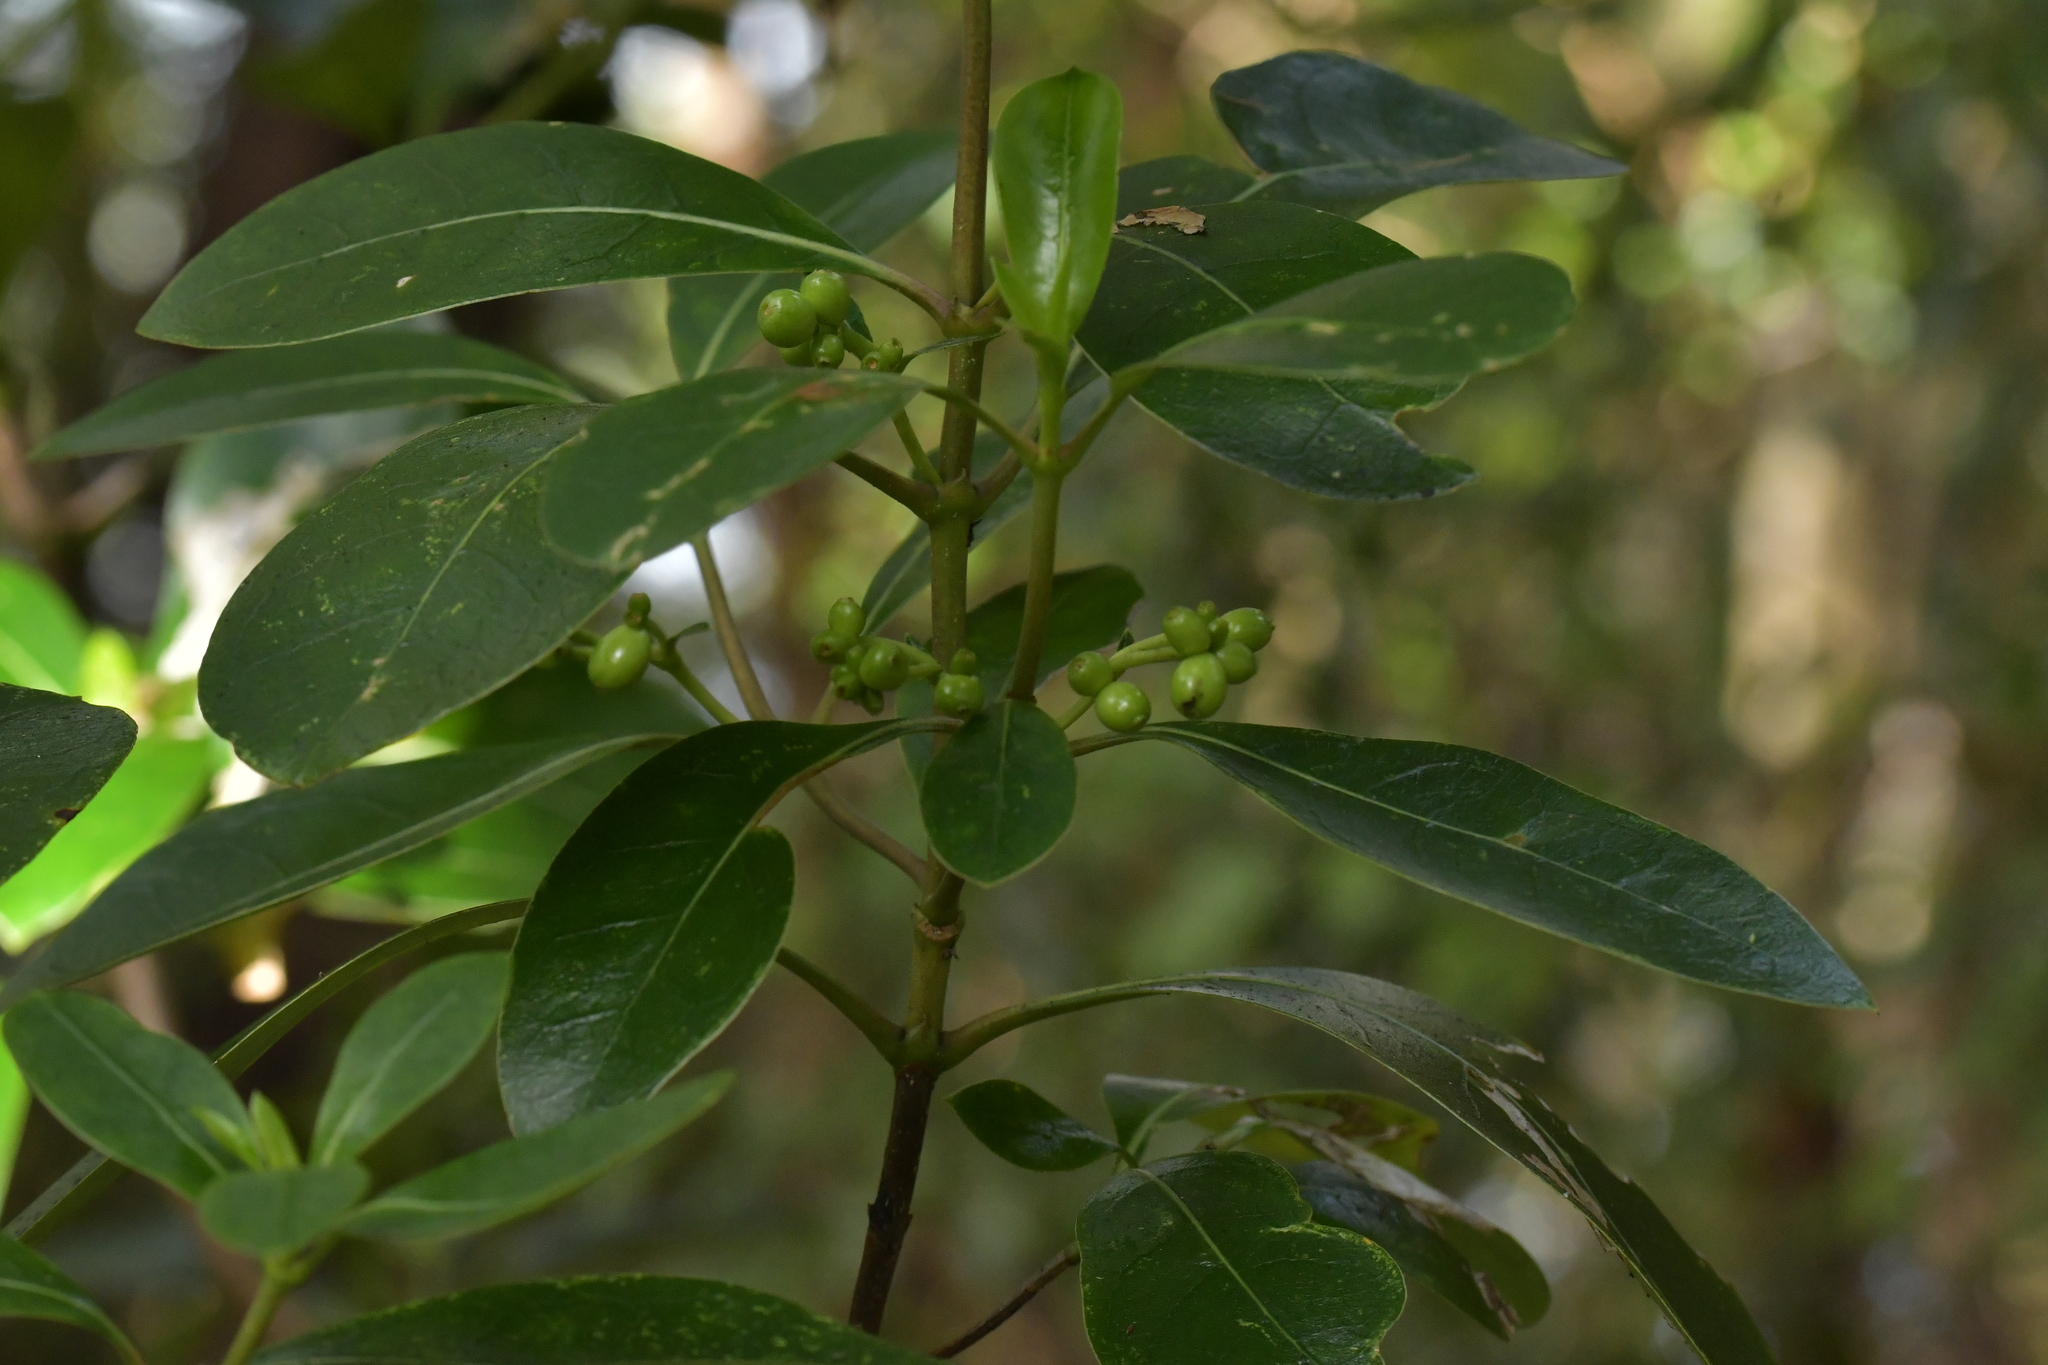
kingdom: Plantae
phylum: Tracheophyta
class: Magnoliopsida
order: Gentianales
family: Rubiaceae
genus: Coprosma
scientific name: Coprosma lucida
